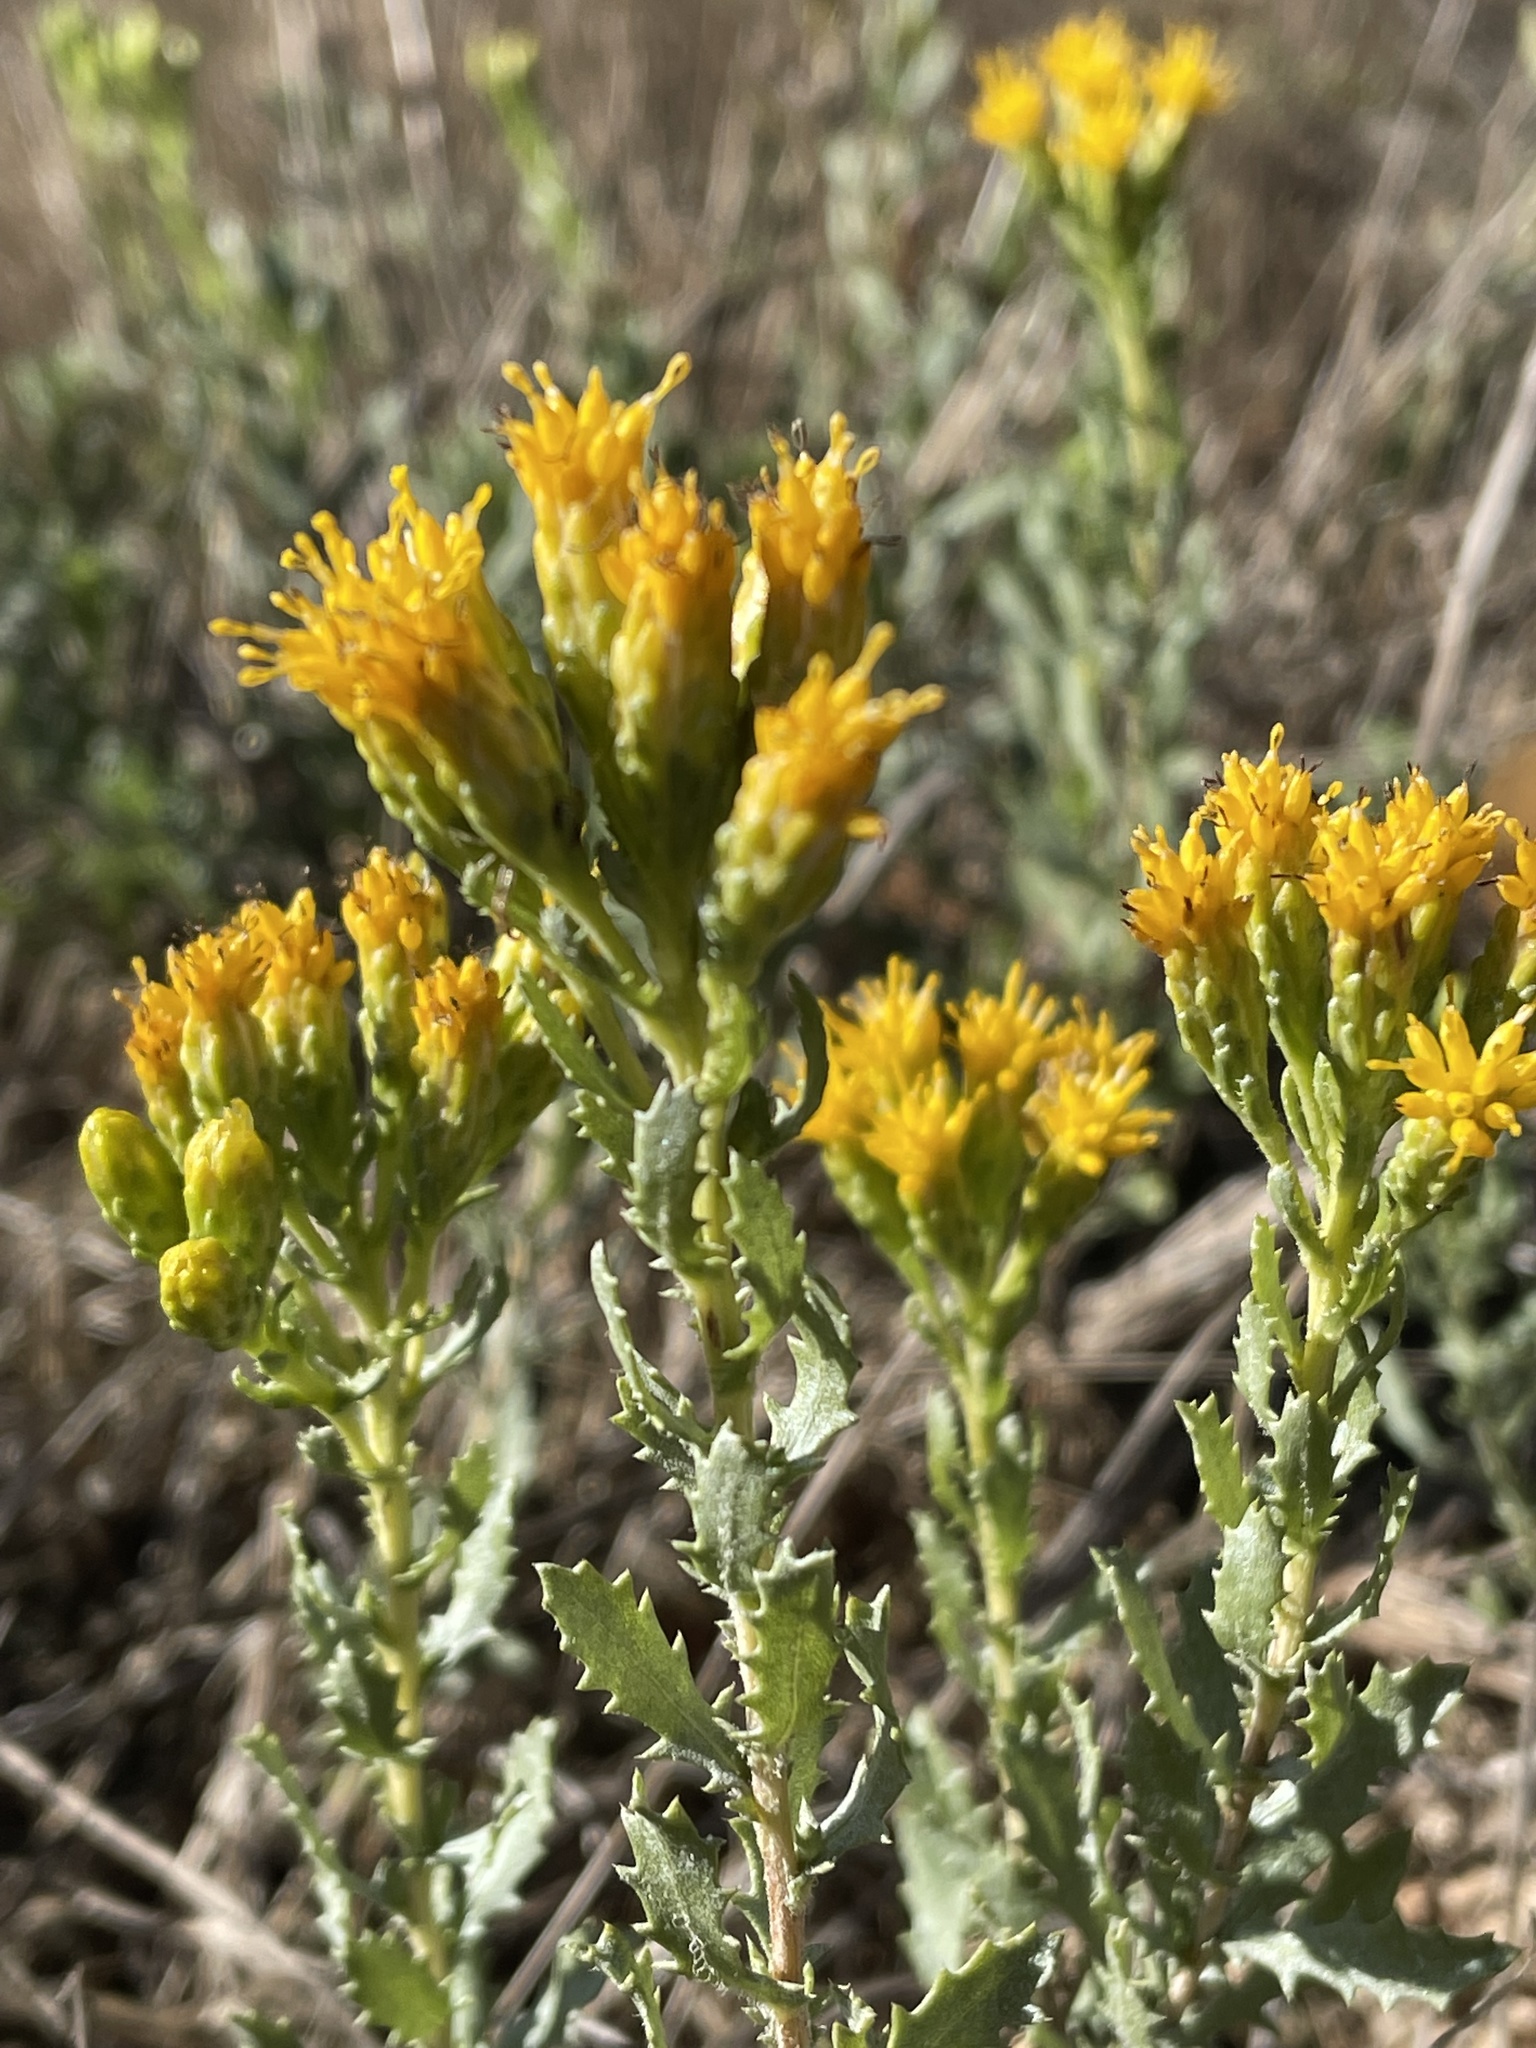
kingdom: Plantae
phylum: Tracheophyta
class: Magnoliopsida
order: Asterales
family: Asteraceae
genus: Isocoma
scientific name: Isocoma menziesii
